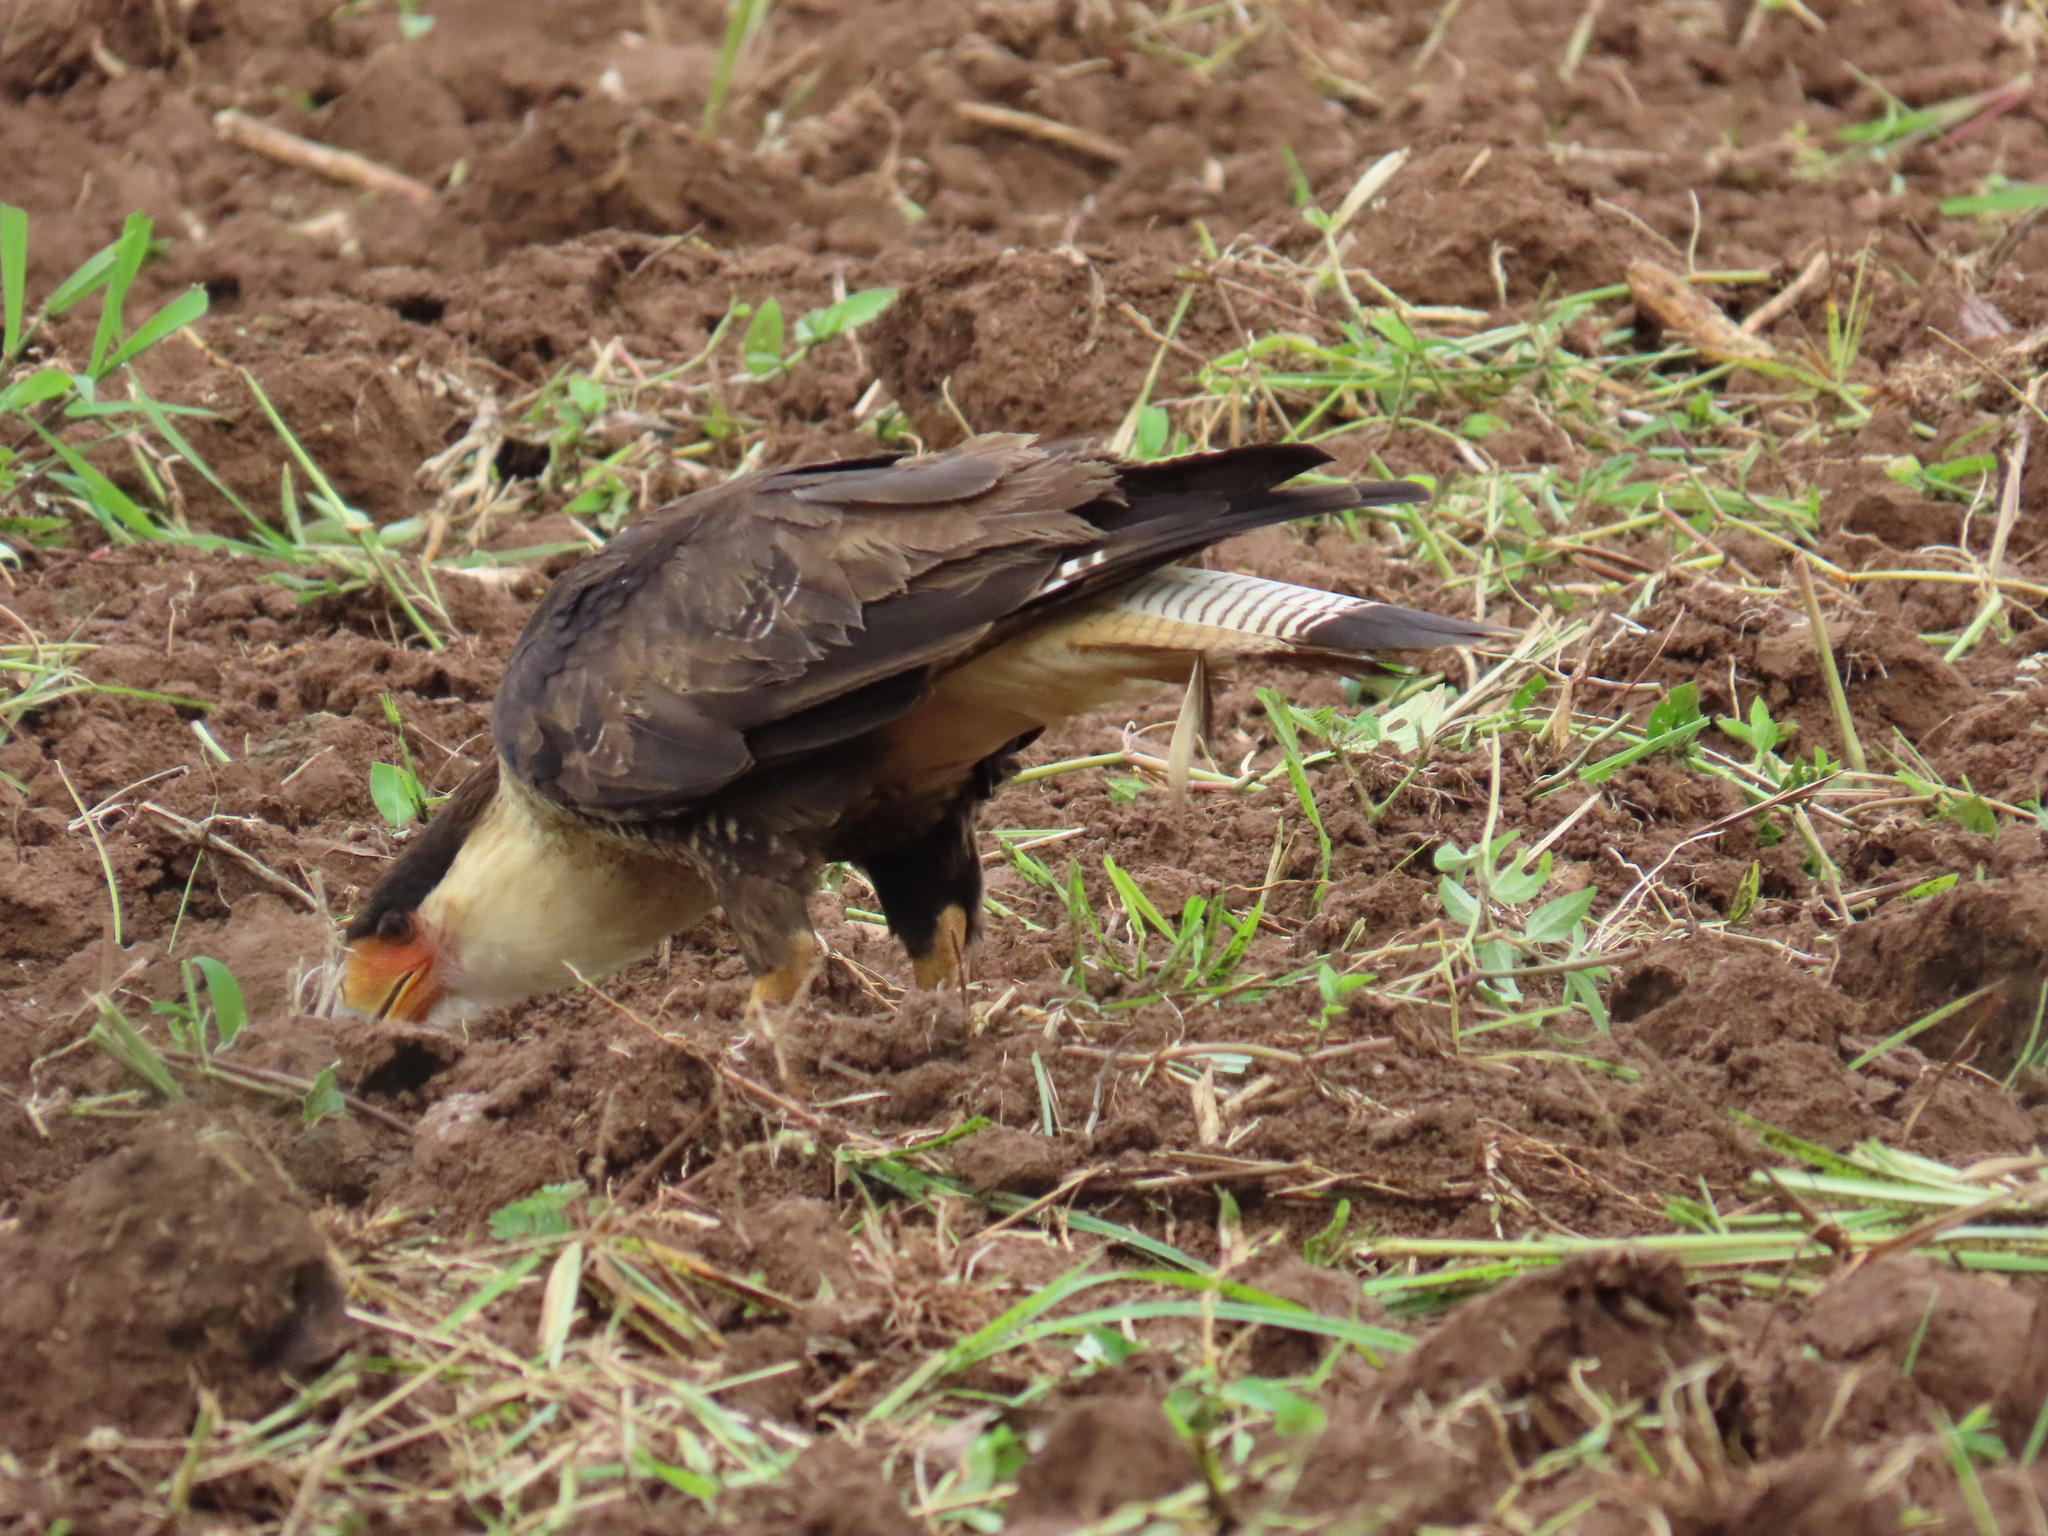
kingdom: Animalia
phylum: Chordata
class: Aves
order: Falconiformes
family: Falconidae
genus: Caracara
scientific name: Caracara plancus
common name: Southern caracara
